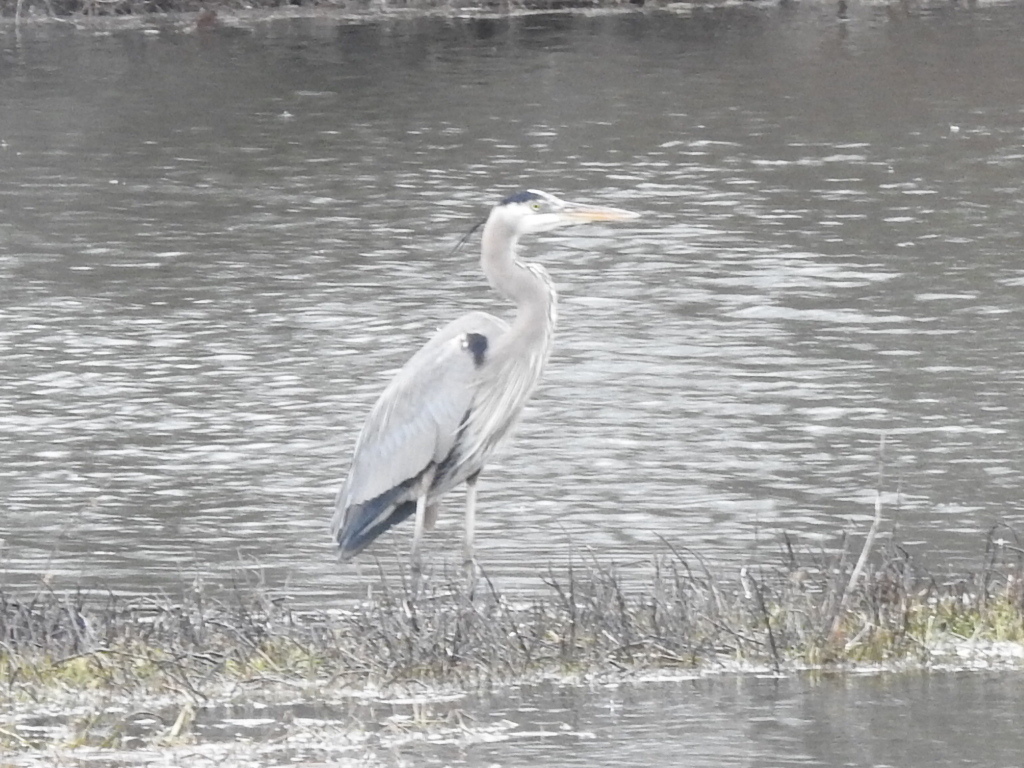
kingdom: Animalia
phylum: Chordata
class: Aves
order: Pelecaniformes
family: Ardeidae
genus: Ardea
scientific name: Ardea herodias
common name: Great blue heron
